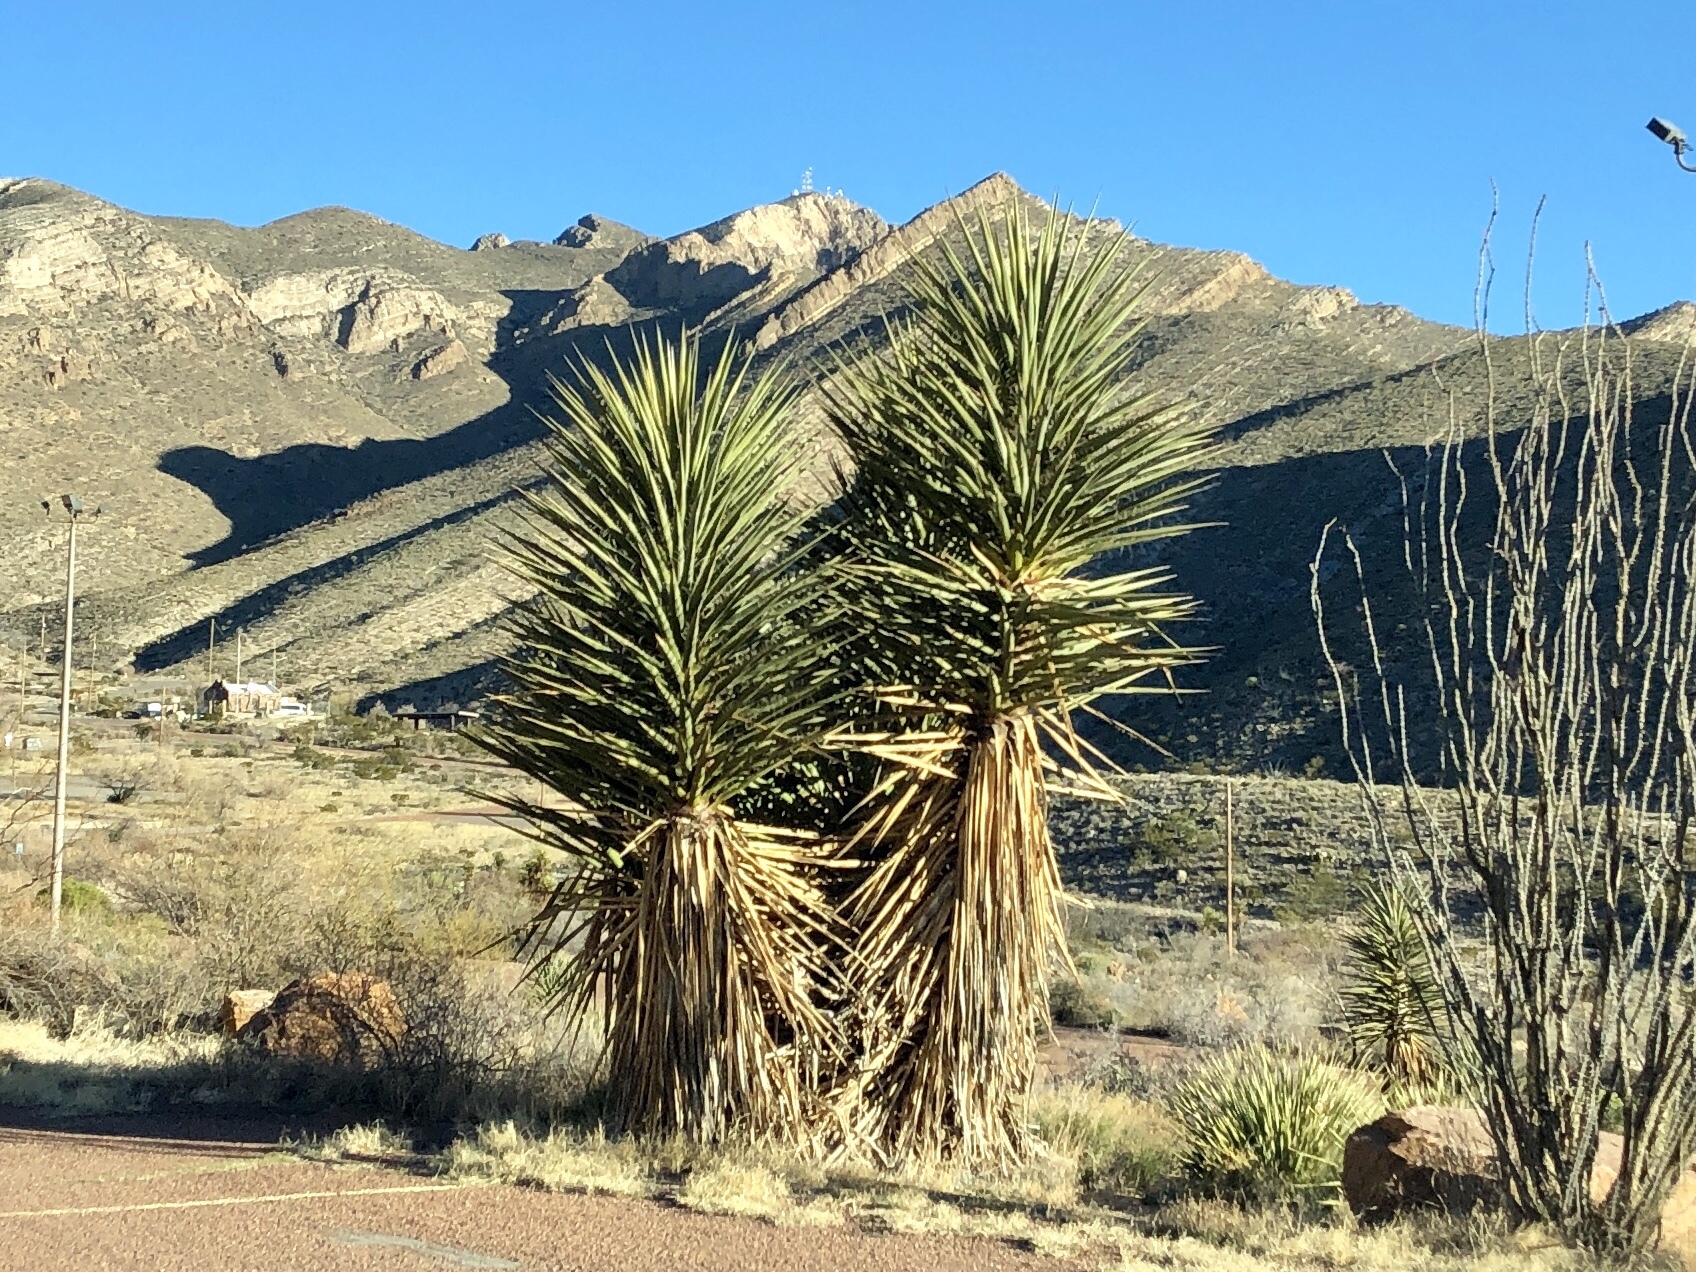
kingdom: Plantae
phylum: Tracheophyta
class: Liliopsida
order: Asparagales
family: Asparagaceae
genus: Yucca
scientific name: Yucca treculiana
